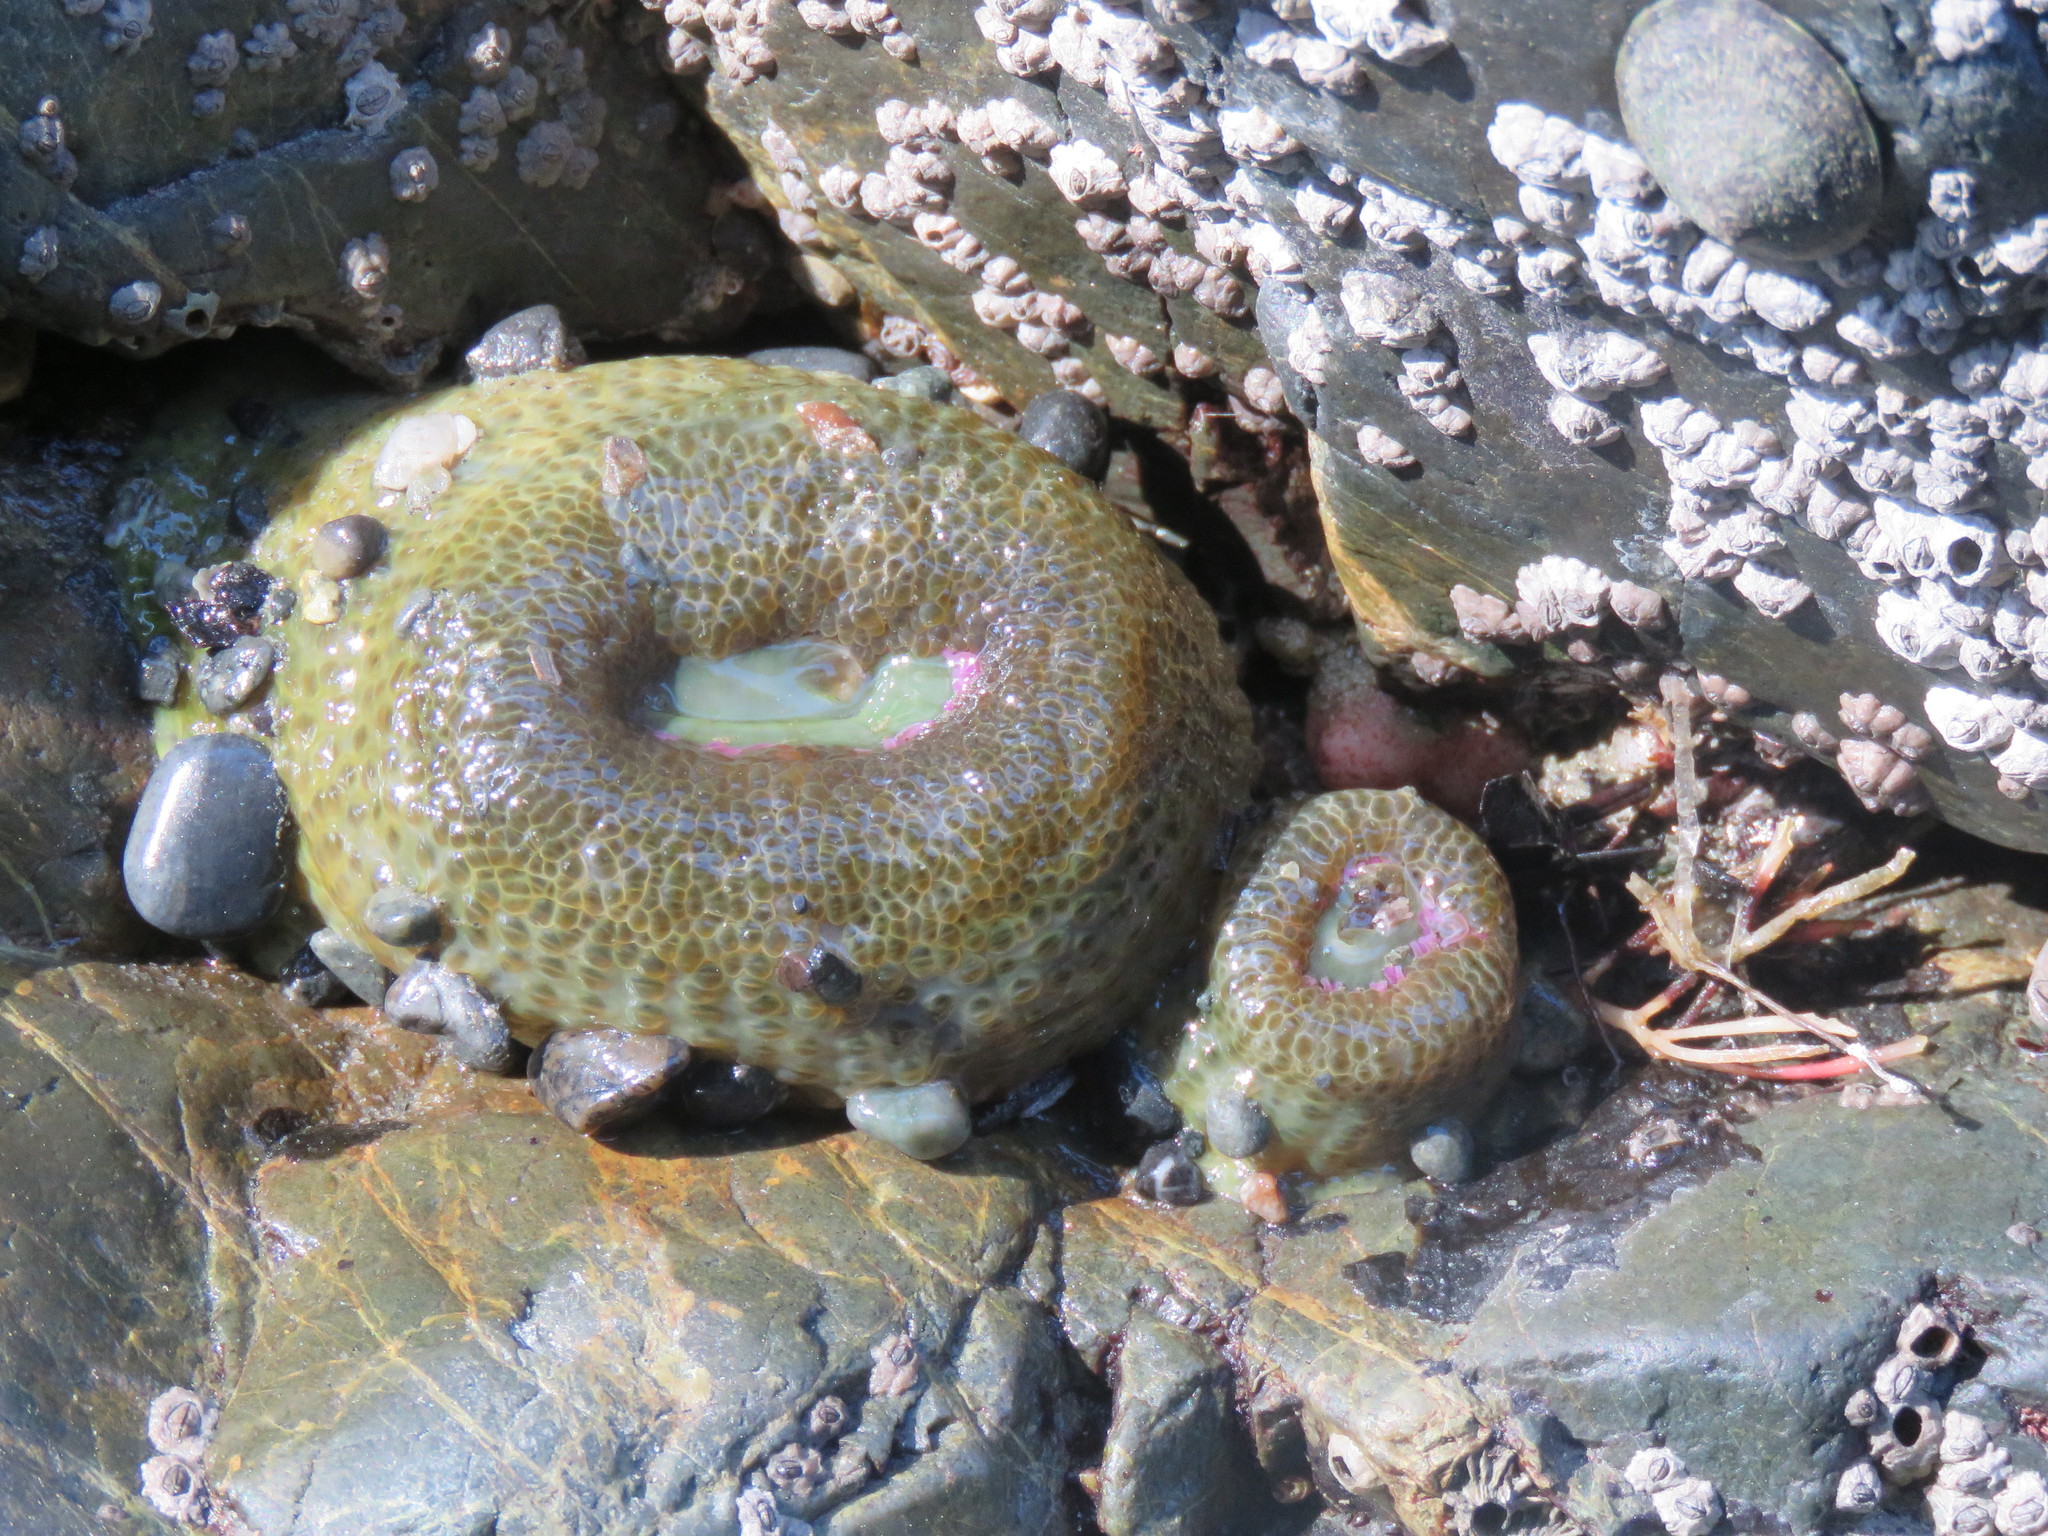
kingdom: Animalia
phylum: Cnidaria
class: Anthozoa
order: Actiniaria
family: Actiniidae
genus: Anthopleura
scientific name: Anthopleura elegantissima
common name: Clonal anemone
